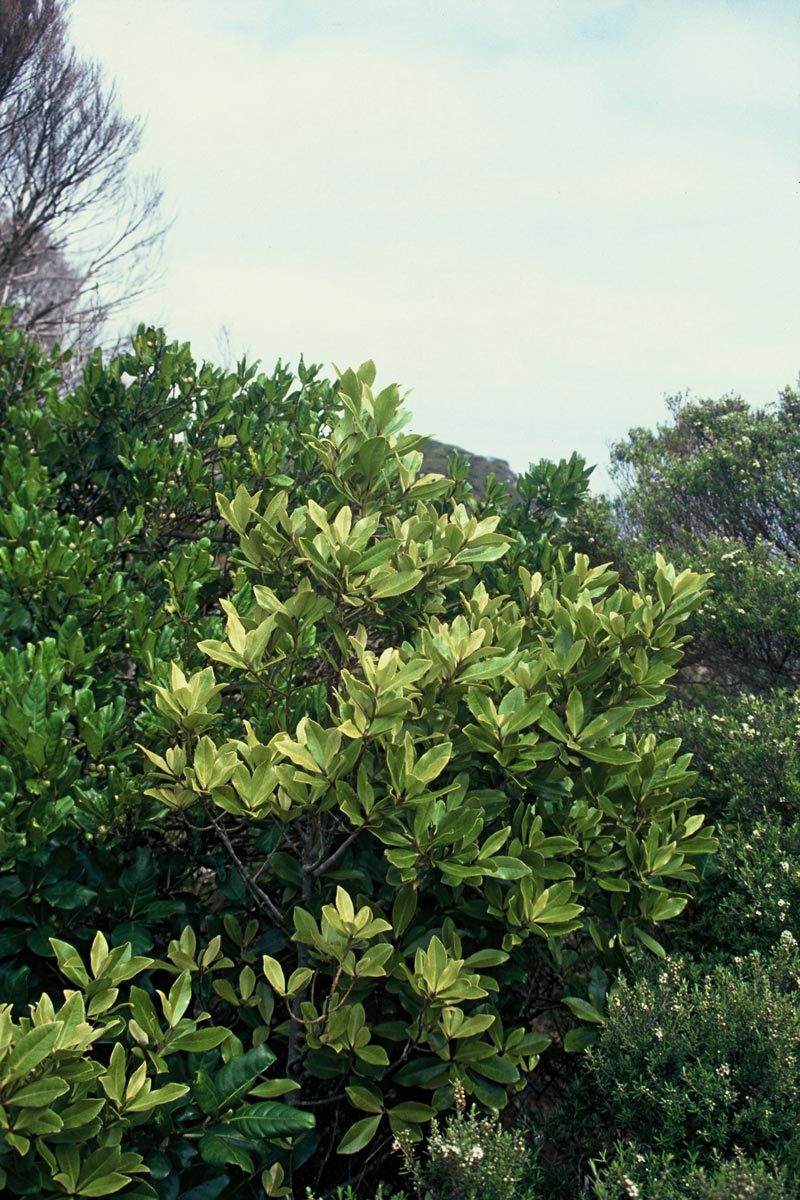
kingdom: Plantae
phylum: Tracheophyta
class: Magnoliopsida
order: Ericales
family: Primulaceae
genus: Myrsine
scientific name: Myrsine oliveri
